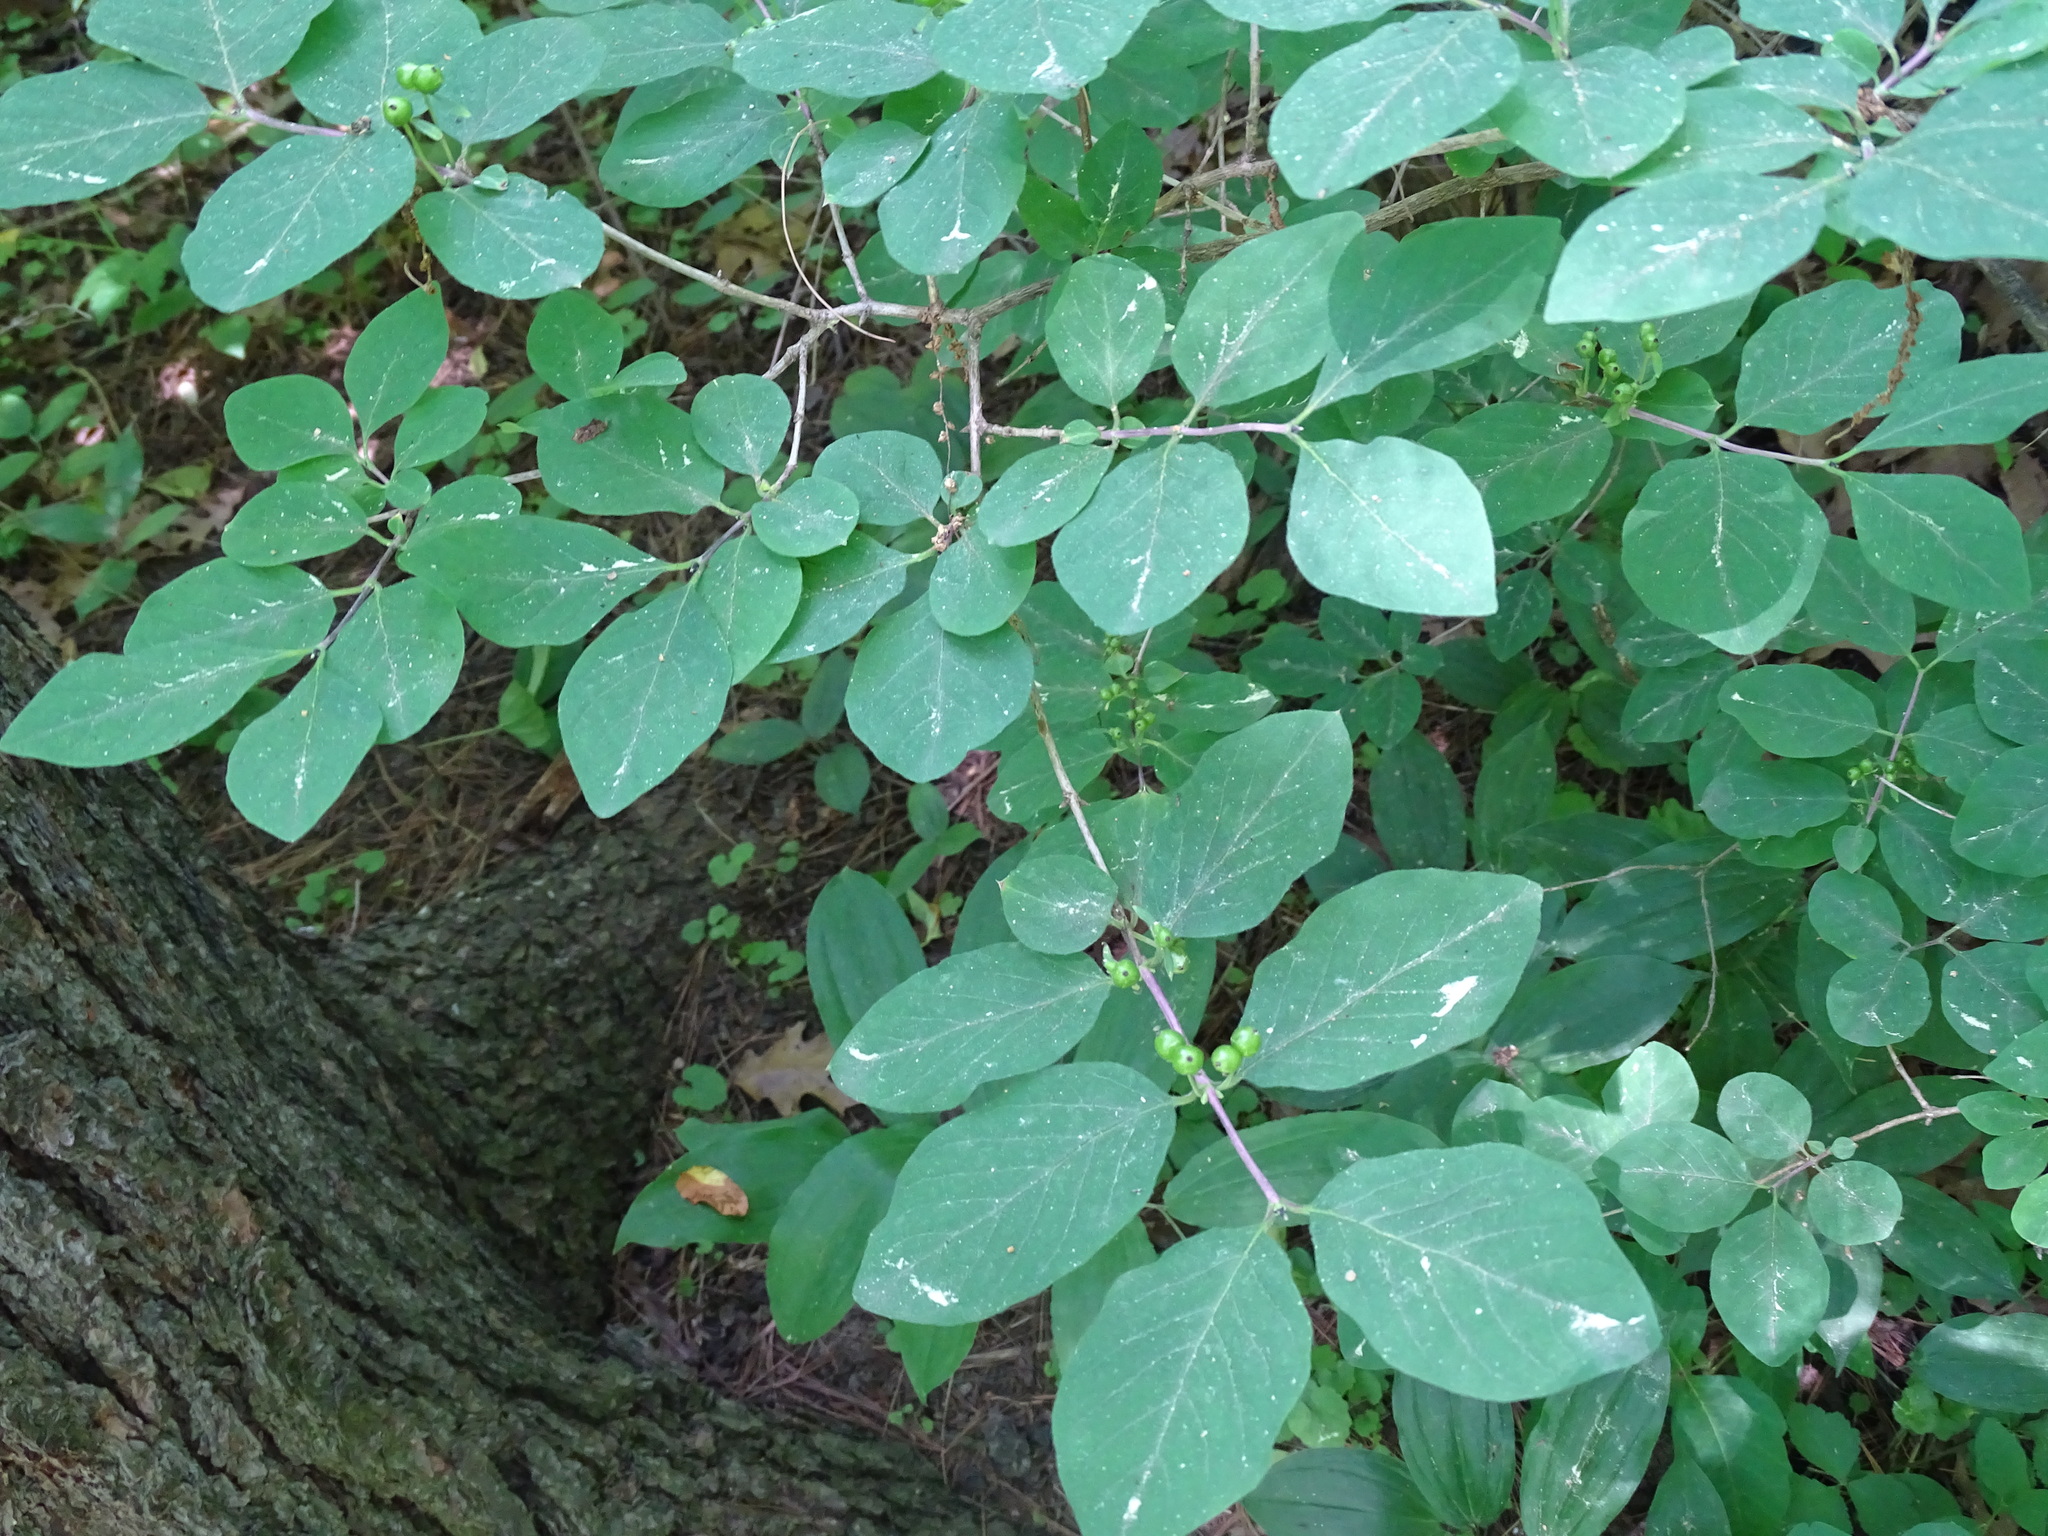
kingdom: Plantae
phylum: Tracheophyta
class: Magnoliopsida
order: Dipsacales
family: Caprifoliaceae
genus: Lonicera
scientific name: Lonicera xylosteum
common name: Fly honeysuckle
